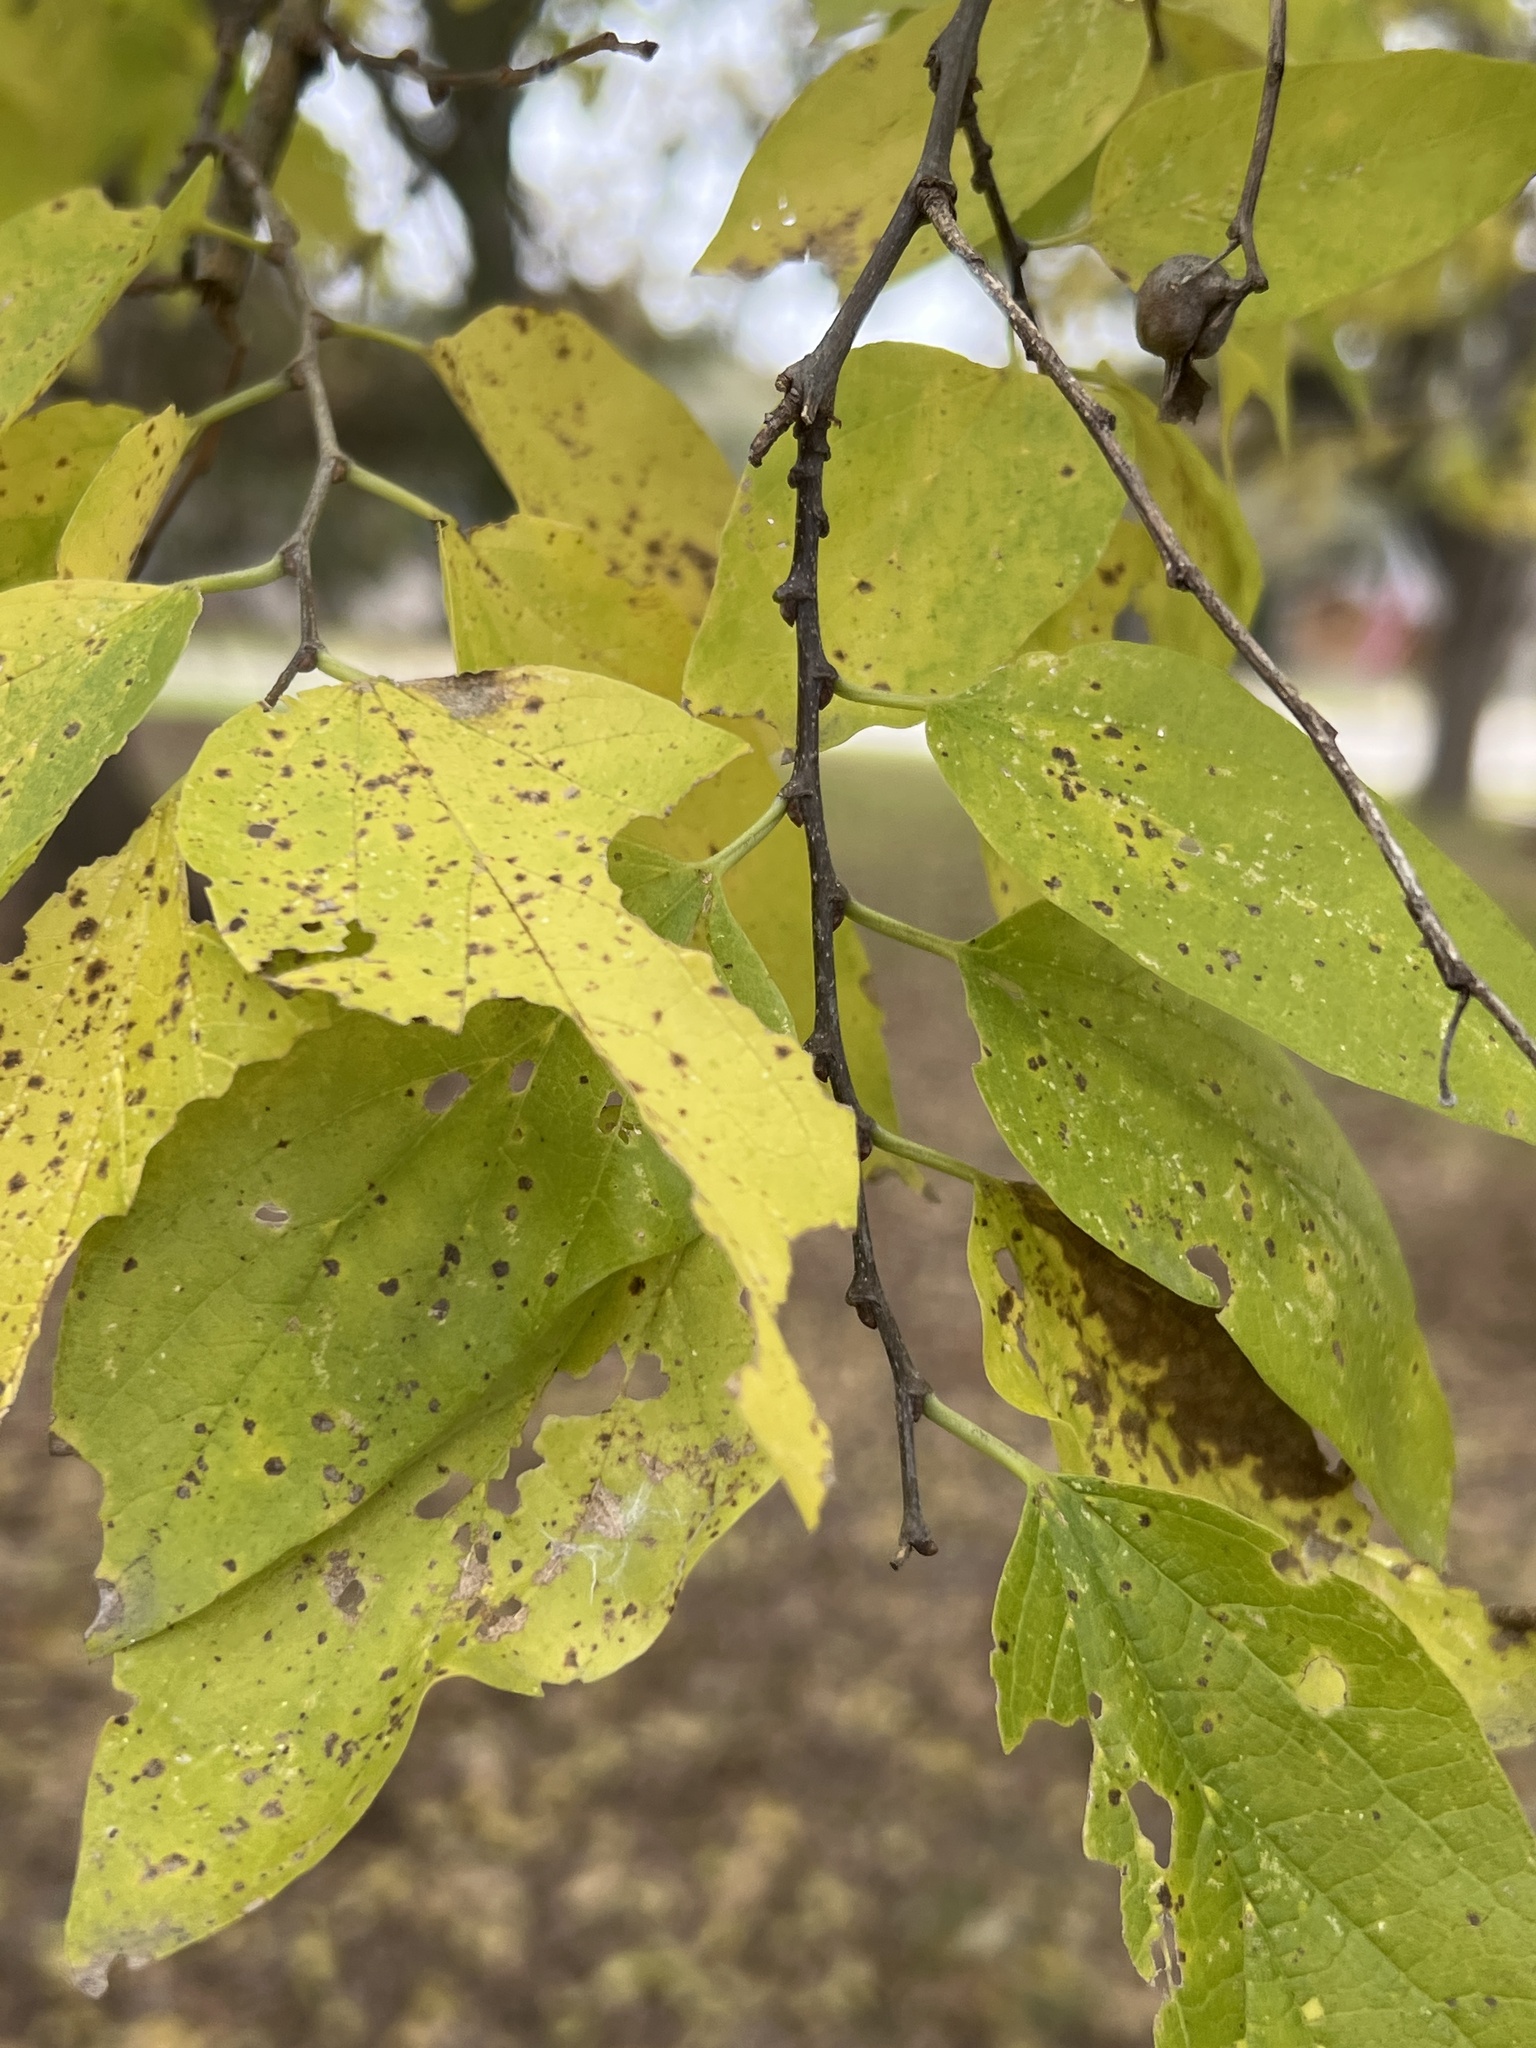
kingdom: Plantae
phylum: Tracheophyta
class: Magnoliopsida
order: Rosales
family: Cannabaceae
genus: Celtis
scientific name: Celtis laevigata
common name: Sugarberry
